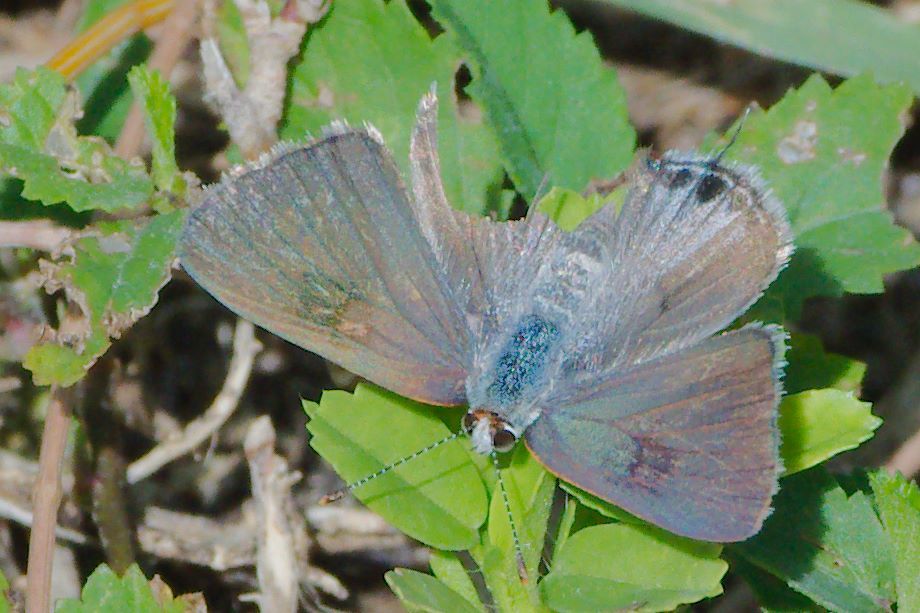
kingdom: Animalia
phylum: Arthropoda
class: Insecta
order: Lepidoptera
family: Lycaenidae
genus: Callicista
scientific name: Callicista columella
